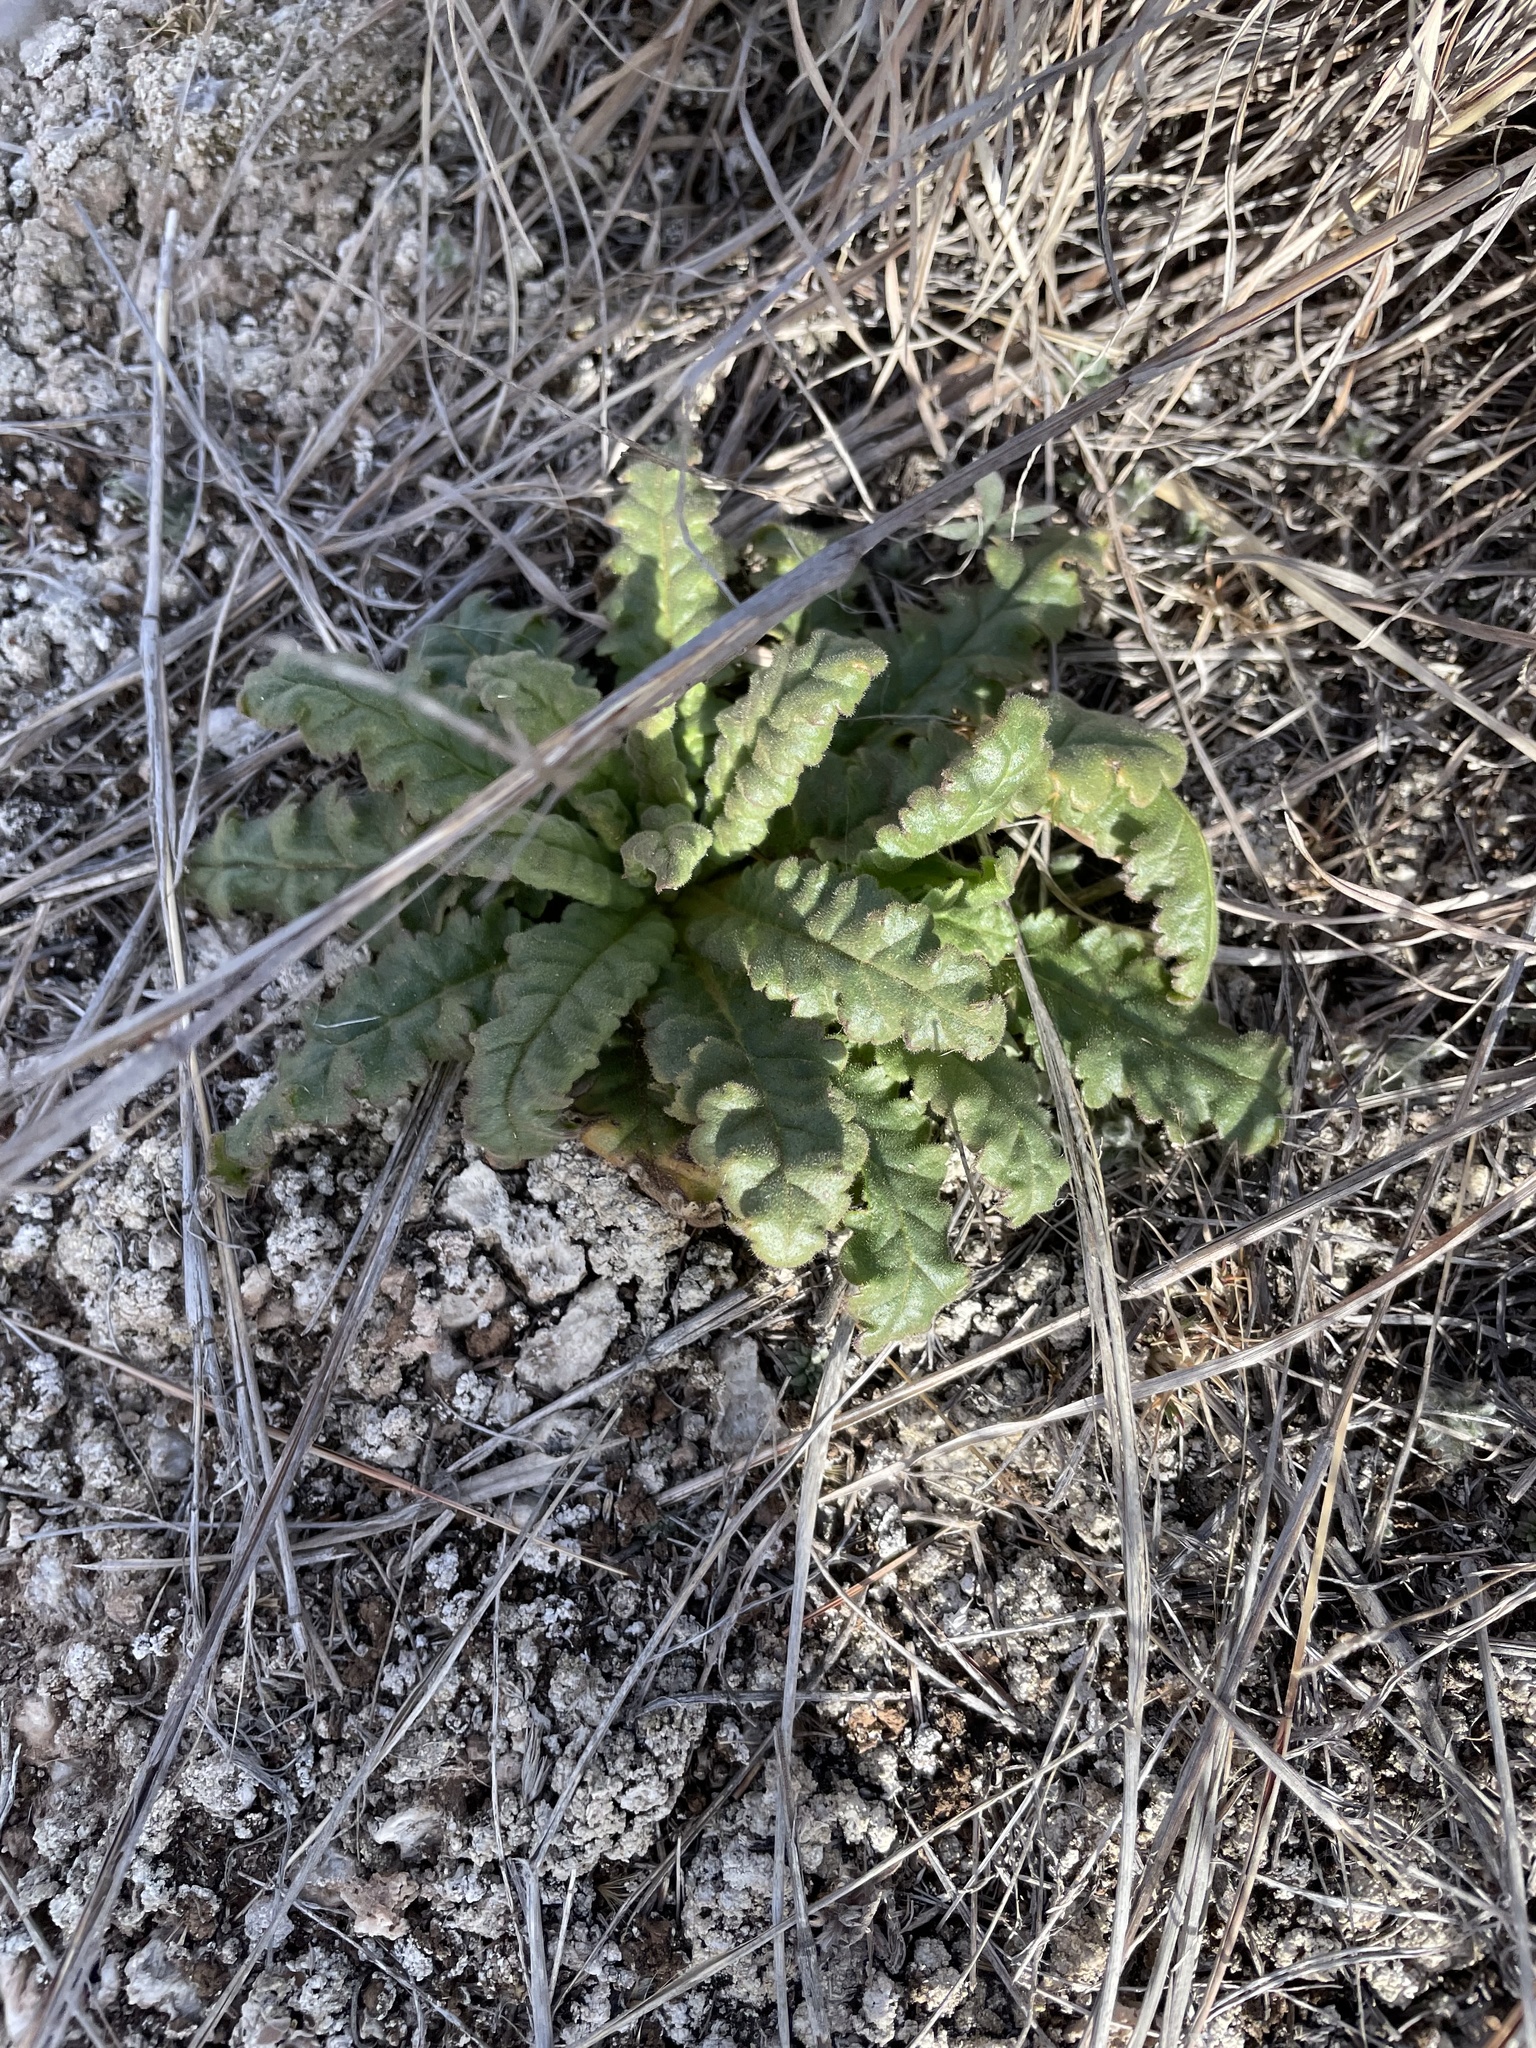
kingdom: Plantae
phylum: Tracheophyta
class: Magnoliopsida
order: Boraginales
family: Hydrophyllaceae
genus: Phacelia
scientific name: Phacelia integrifolia
